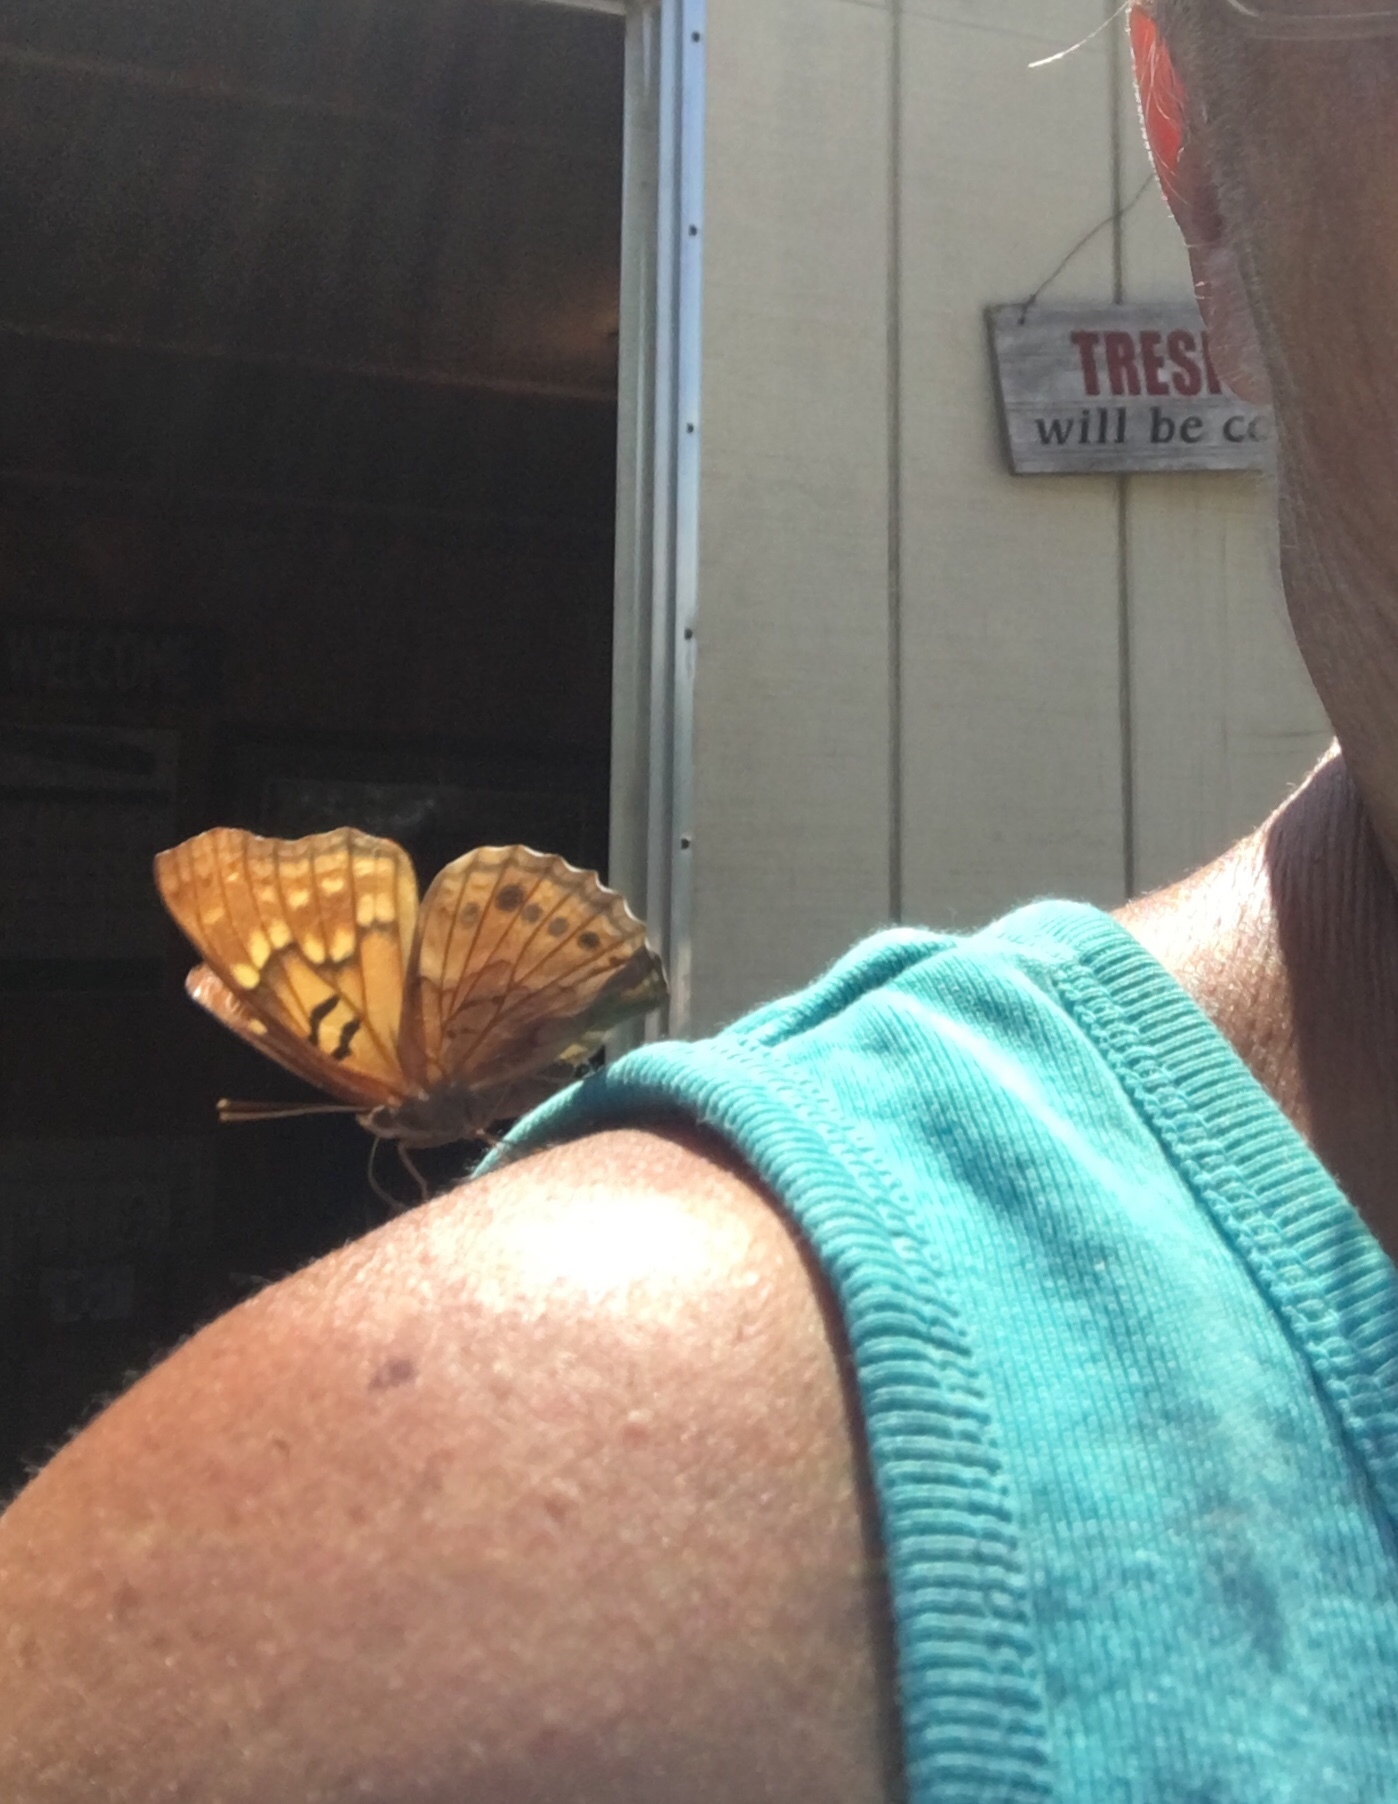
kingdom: Animalia
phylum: Arthropoda
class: Insecta
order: Lepidoptera
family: Nymphalidae
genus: Asterocampa
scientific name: Asterocampa clyton
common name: Tawny emperor
